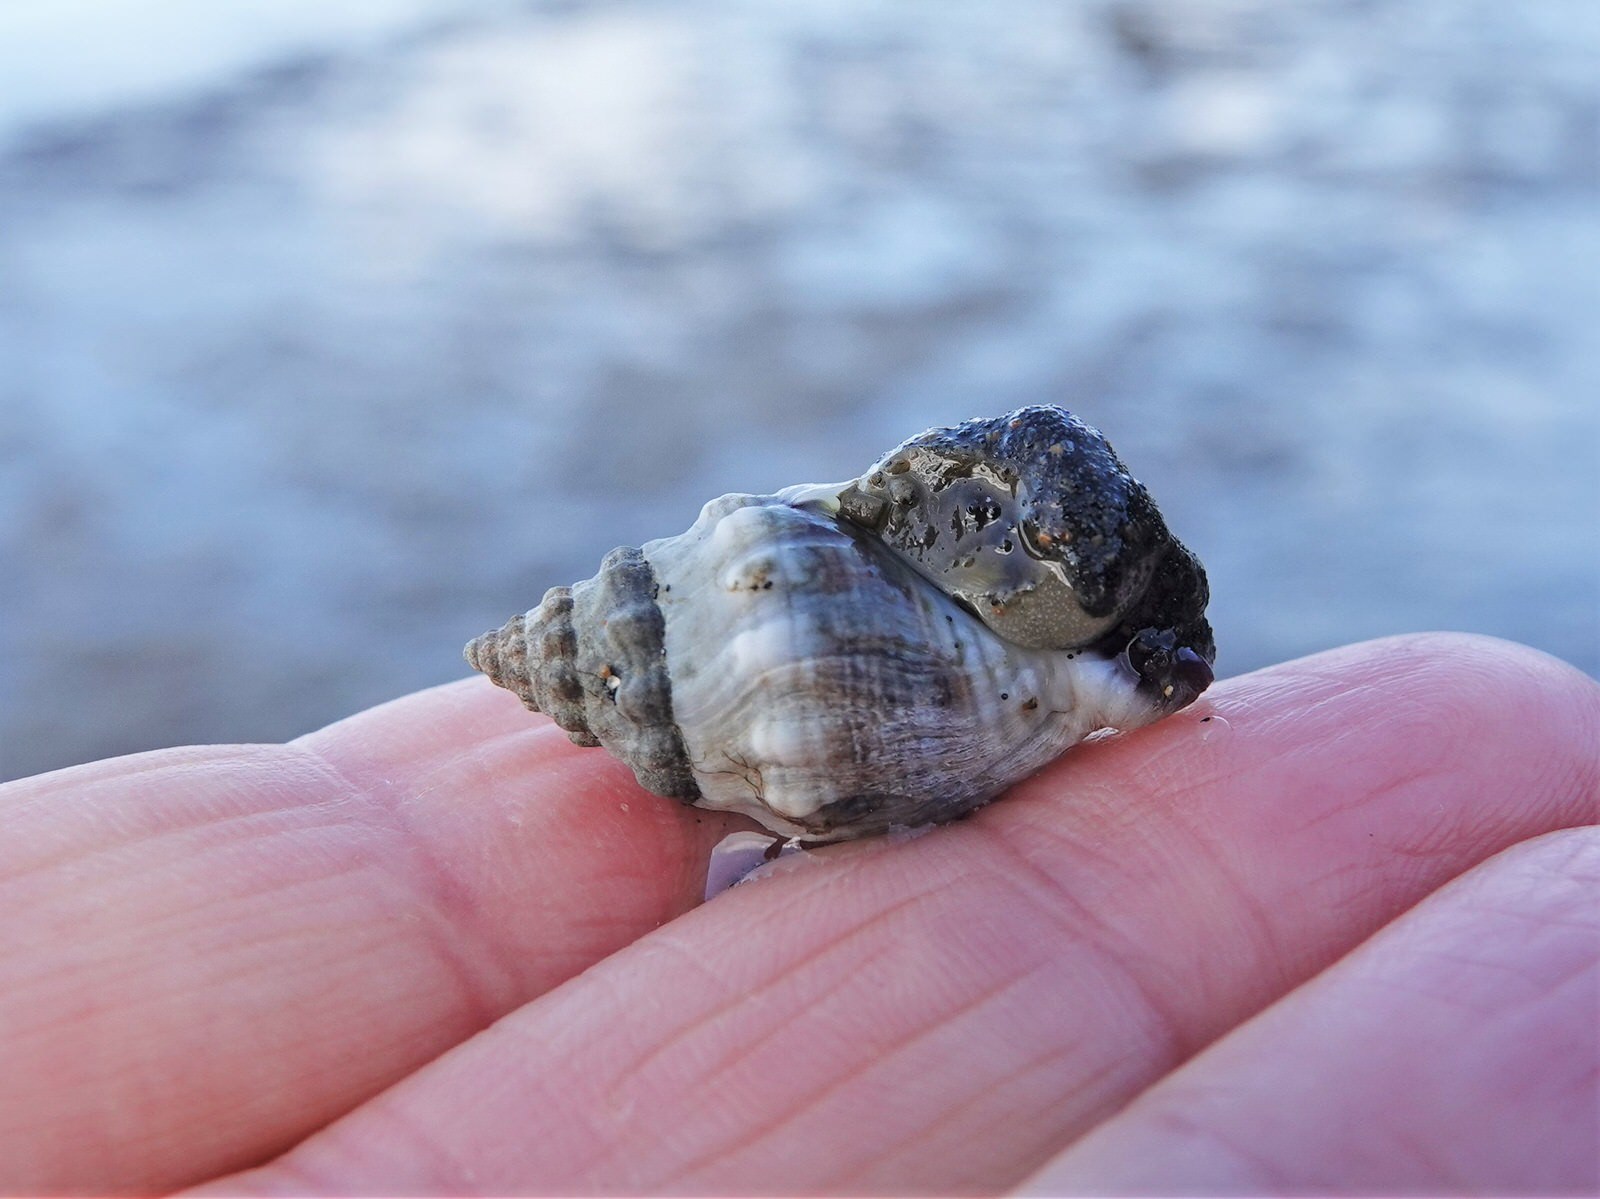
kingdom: Animalia
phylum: Mollusca
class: Gastropoda
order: Neogastropoda
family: Cominellidae
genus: Cominella
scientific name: Cominella glandiformis
